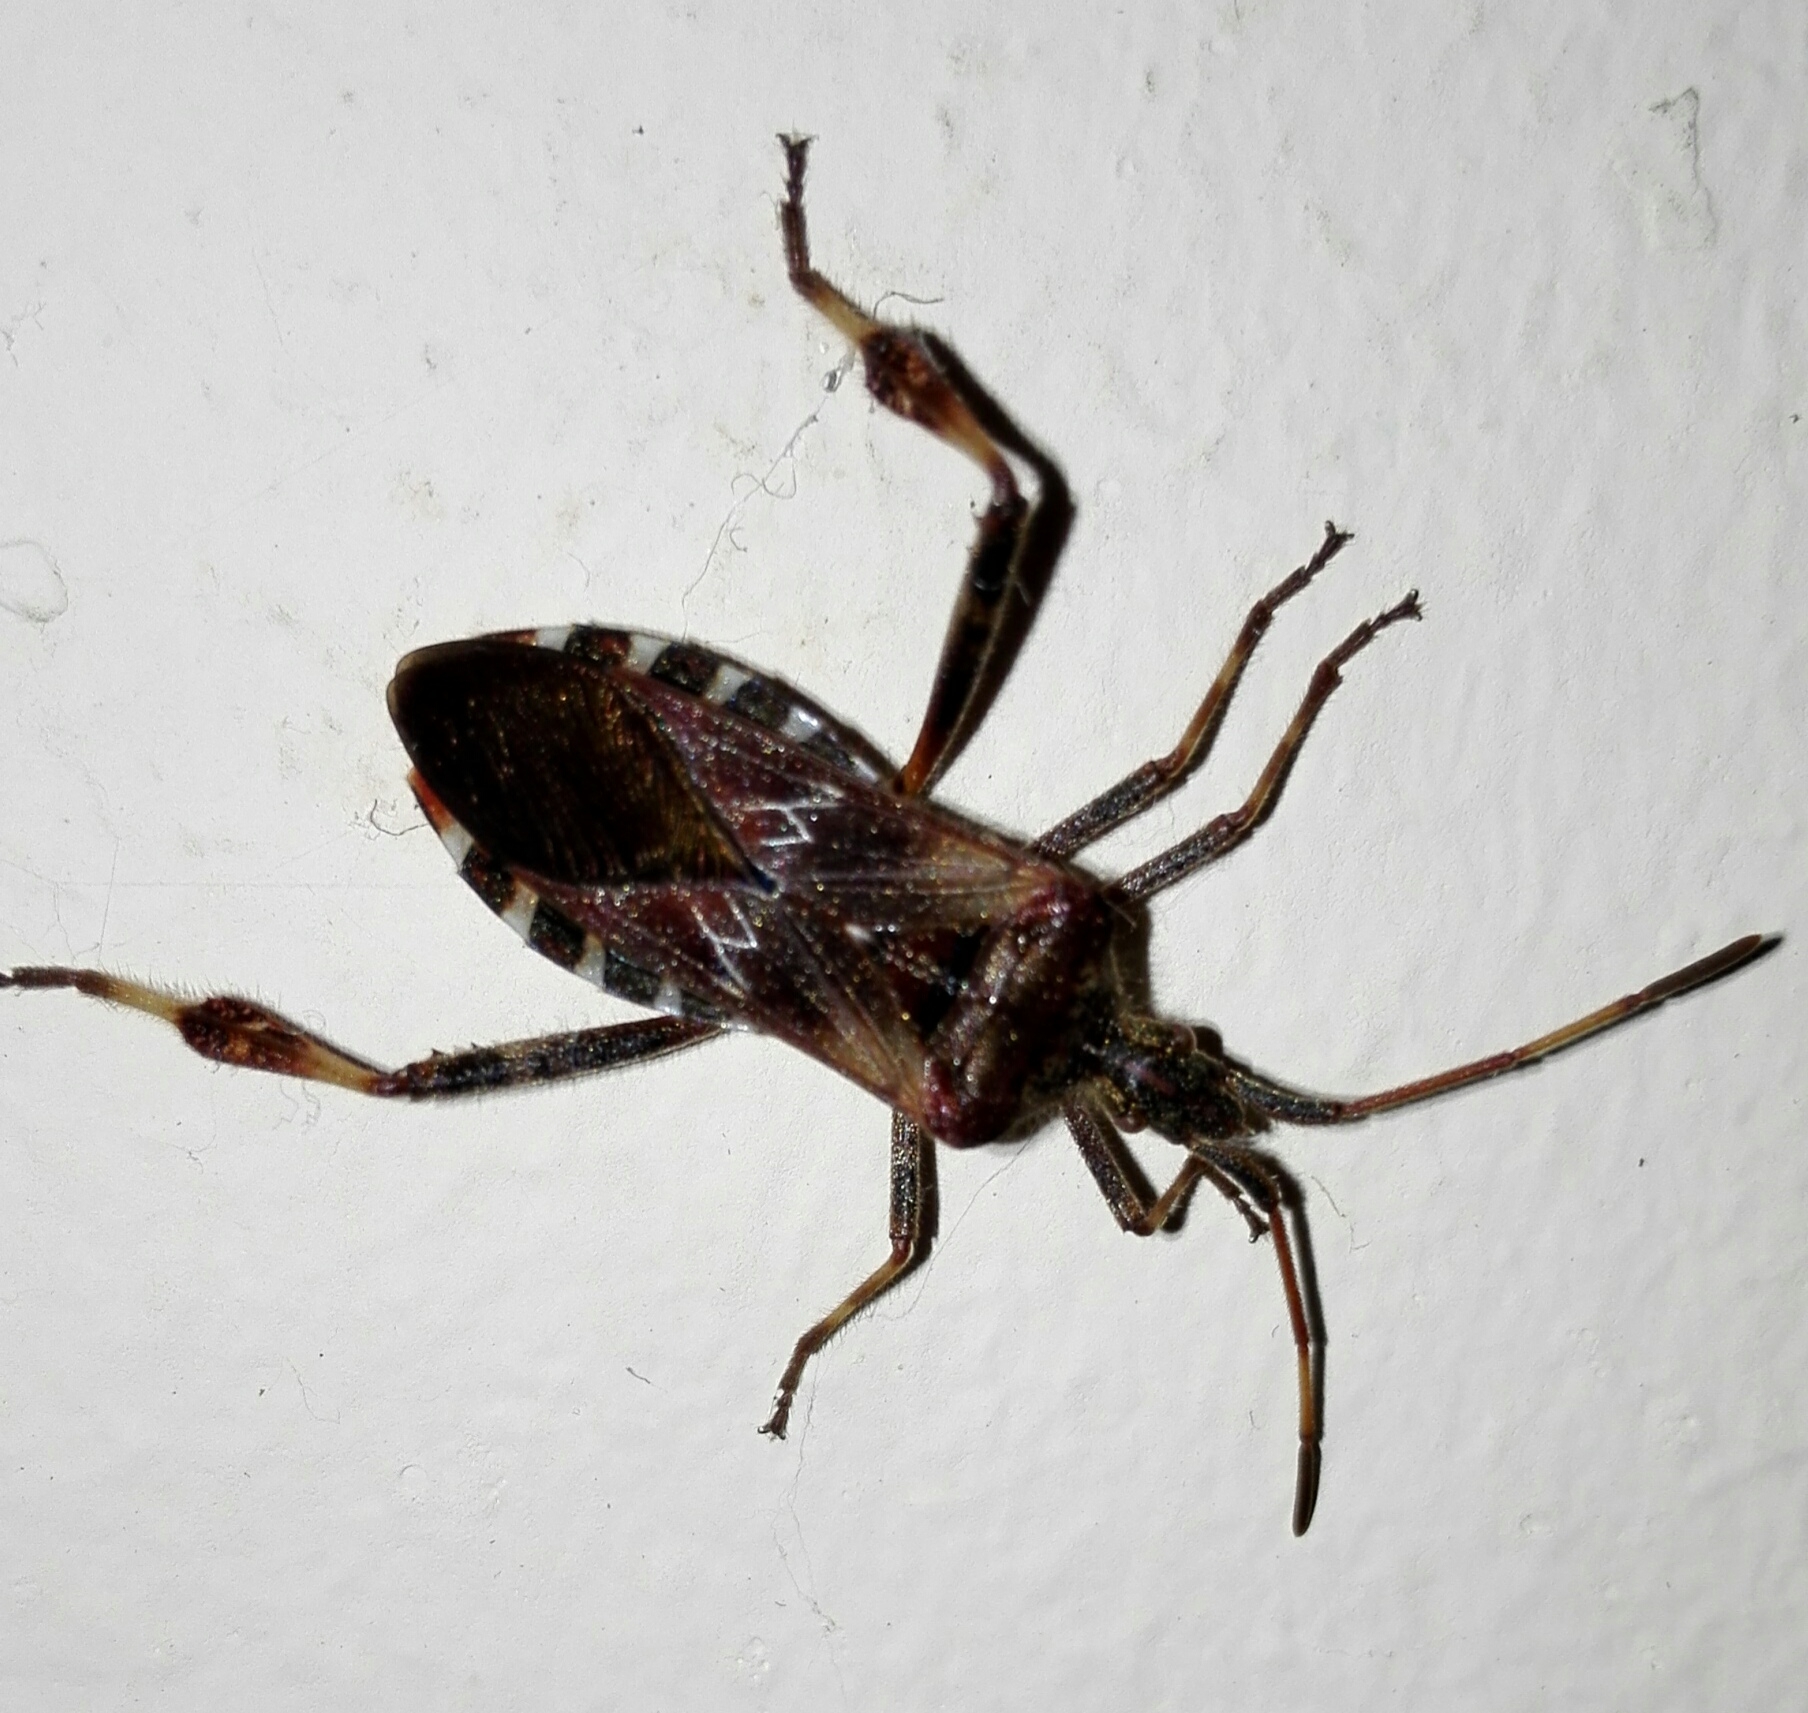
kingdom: Animalia
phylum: Arthropoda
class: Insecta
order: Hemiptera
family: Coreidae
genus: Leptoglossus
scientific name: Leptoglossus occidentalis
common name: Western conifer-seed bug
